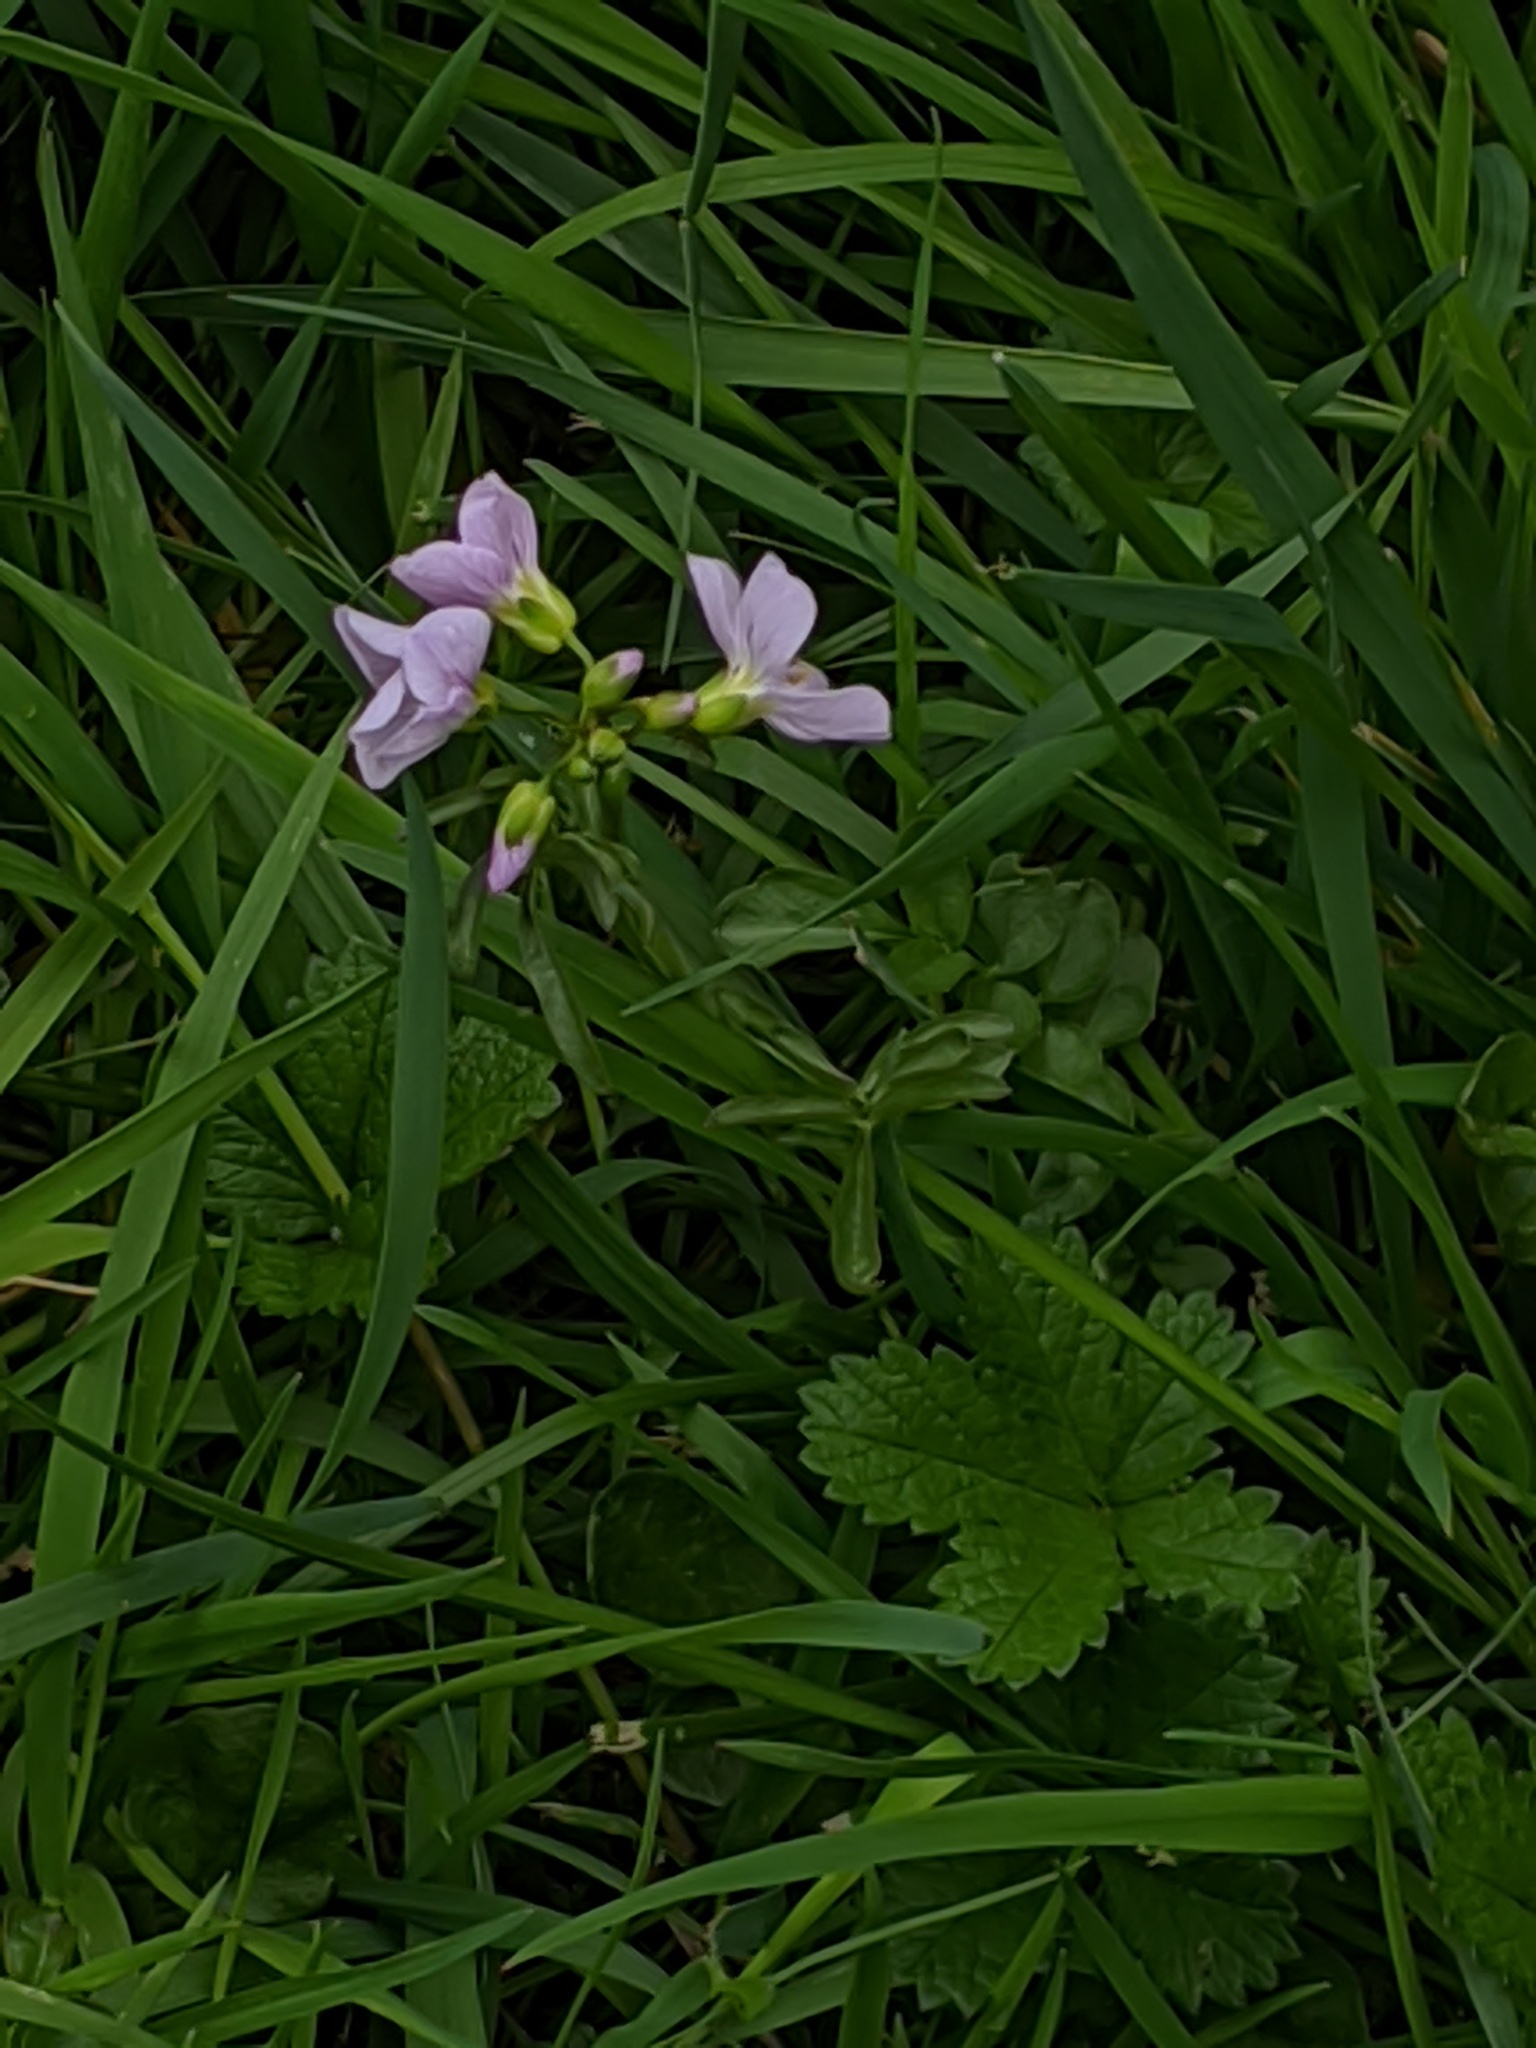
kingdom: Plantae
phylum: Tracheophyta
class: Magnoliopsida
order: Brassicales
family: Brassicaceae
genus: Cardamine
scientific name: Cardamine pratensis
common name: Cuckoo flower
